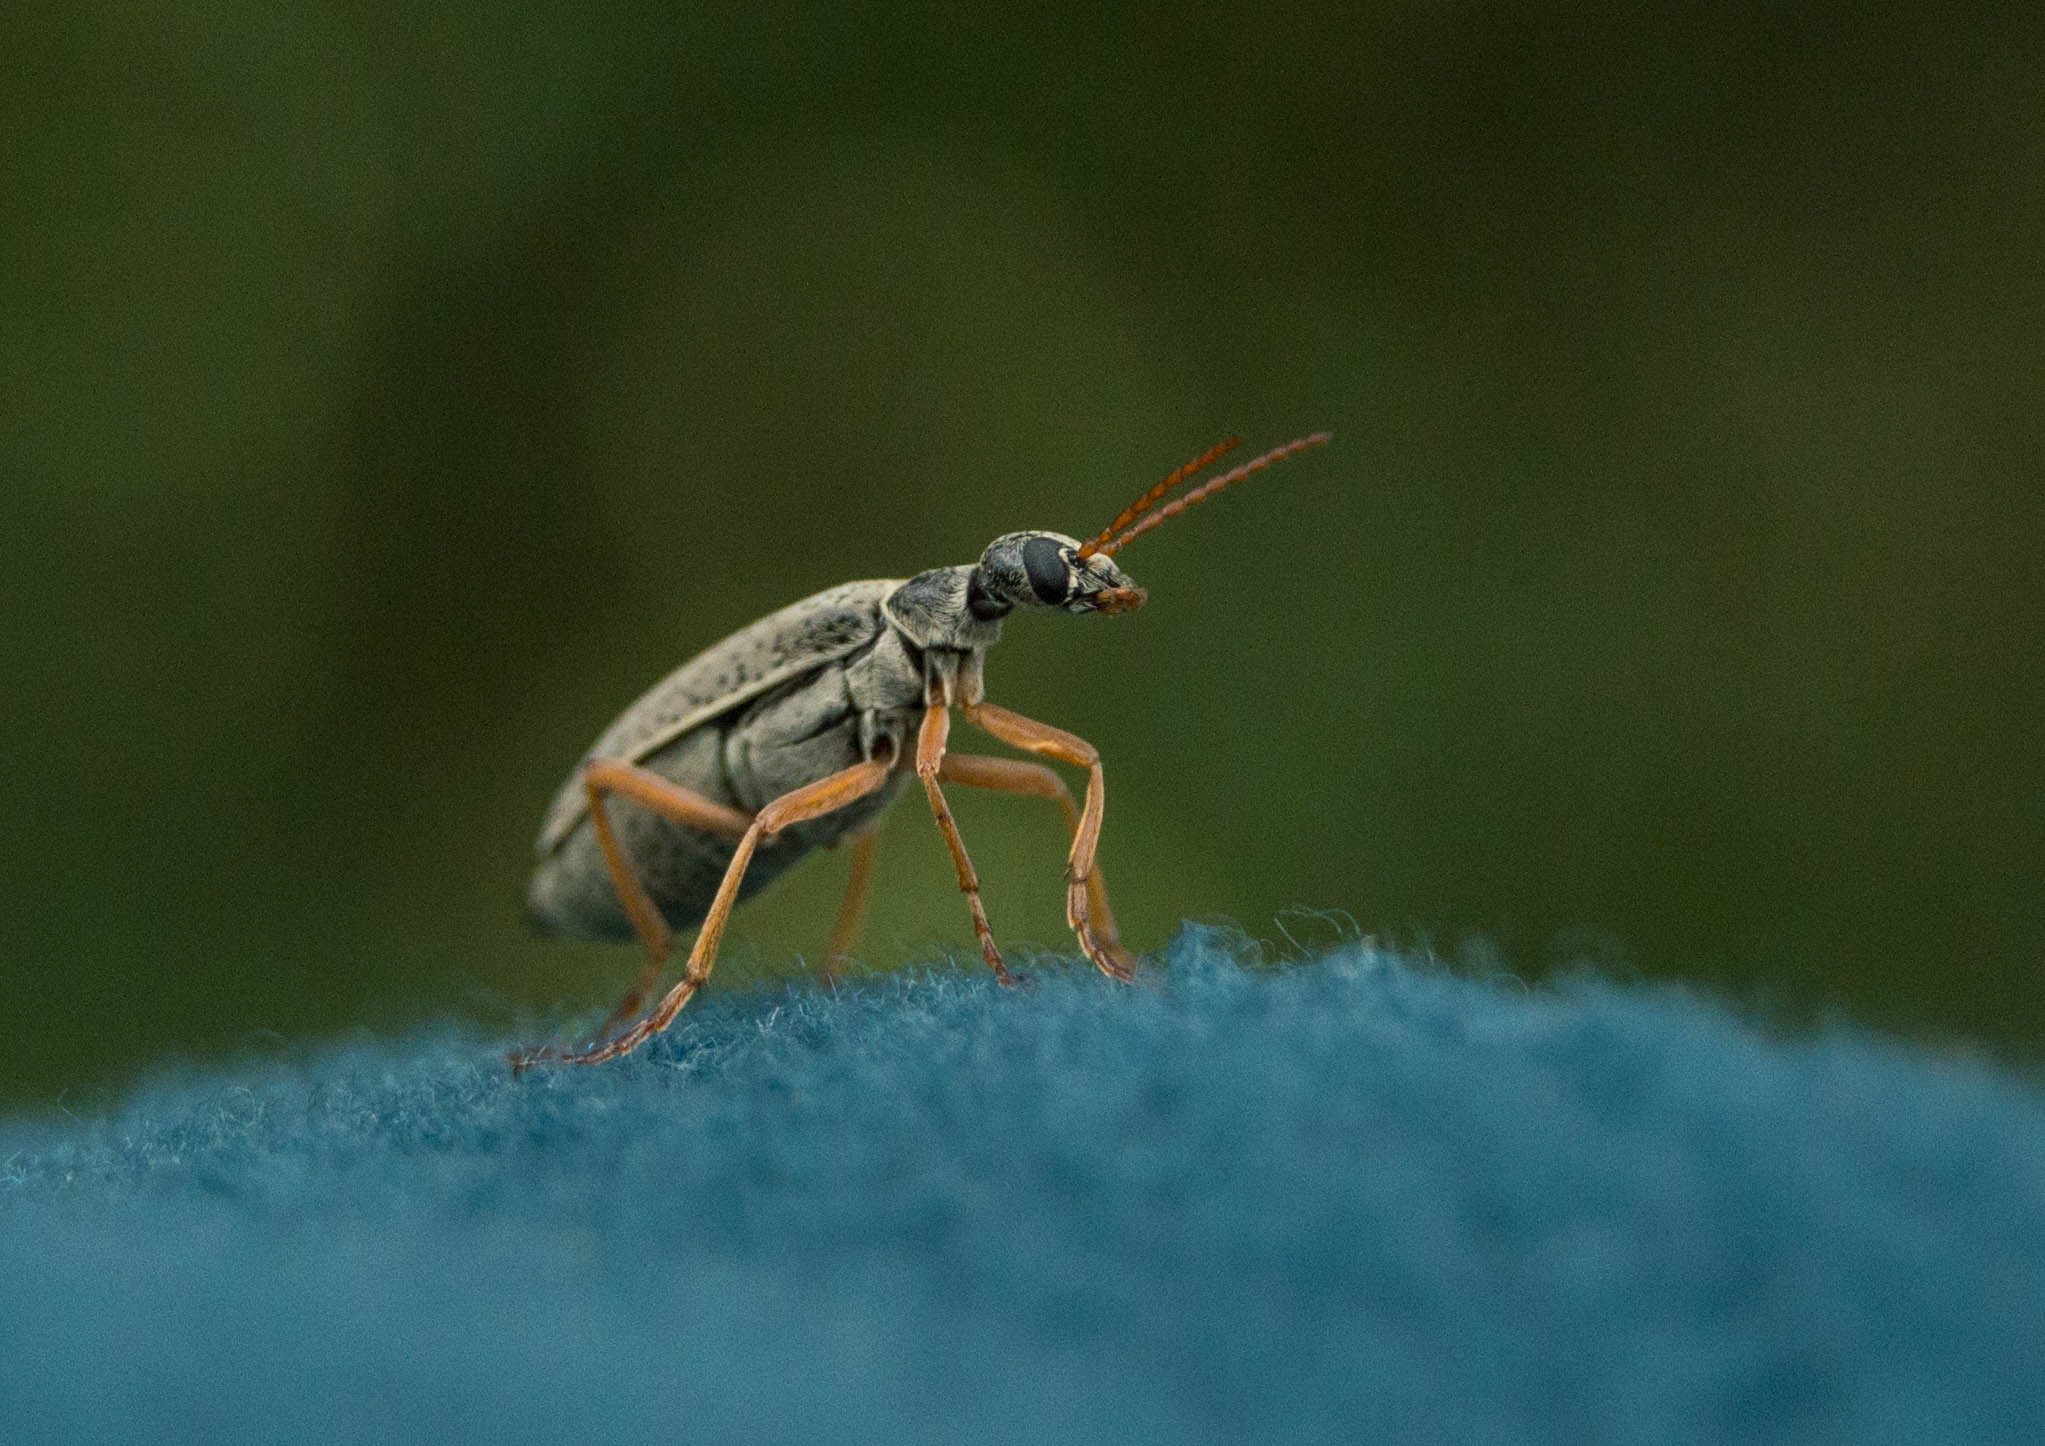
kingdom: Animalia
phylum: Arthropoda
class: Insecta
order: Coleoptera
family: Meloidae
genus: Epicauta
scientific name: Epicauta
